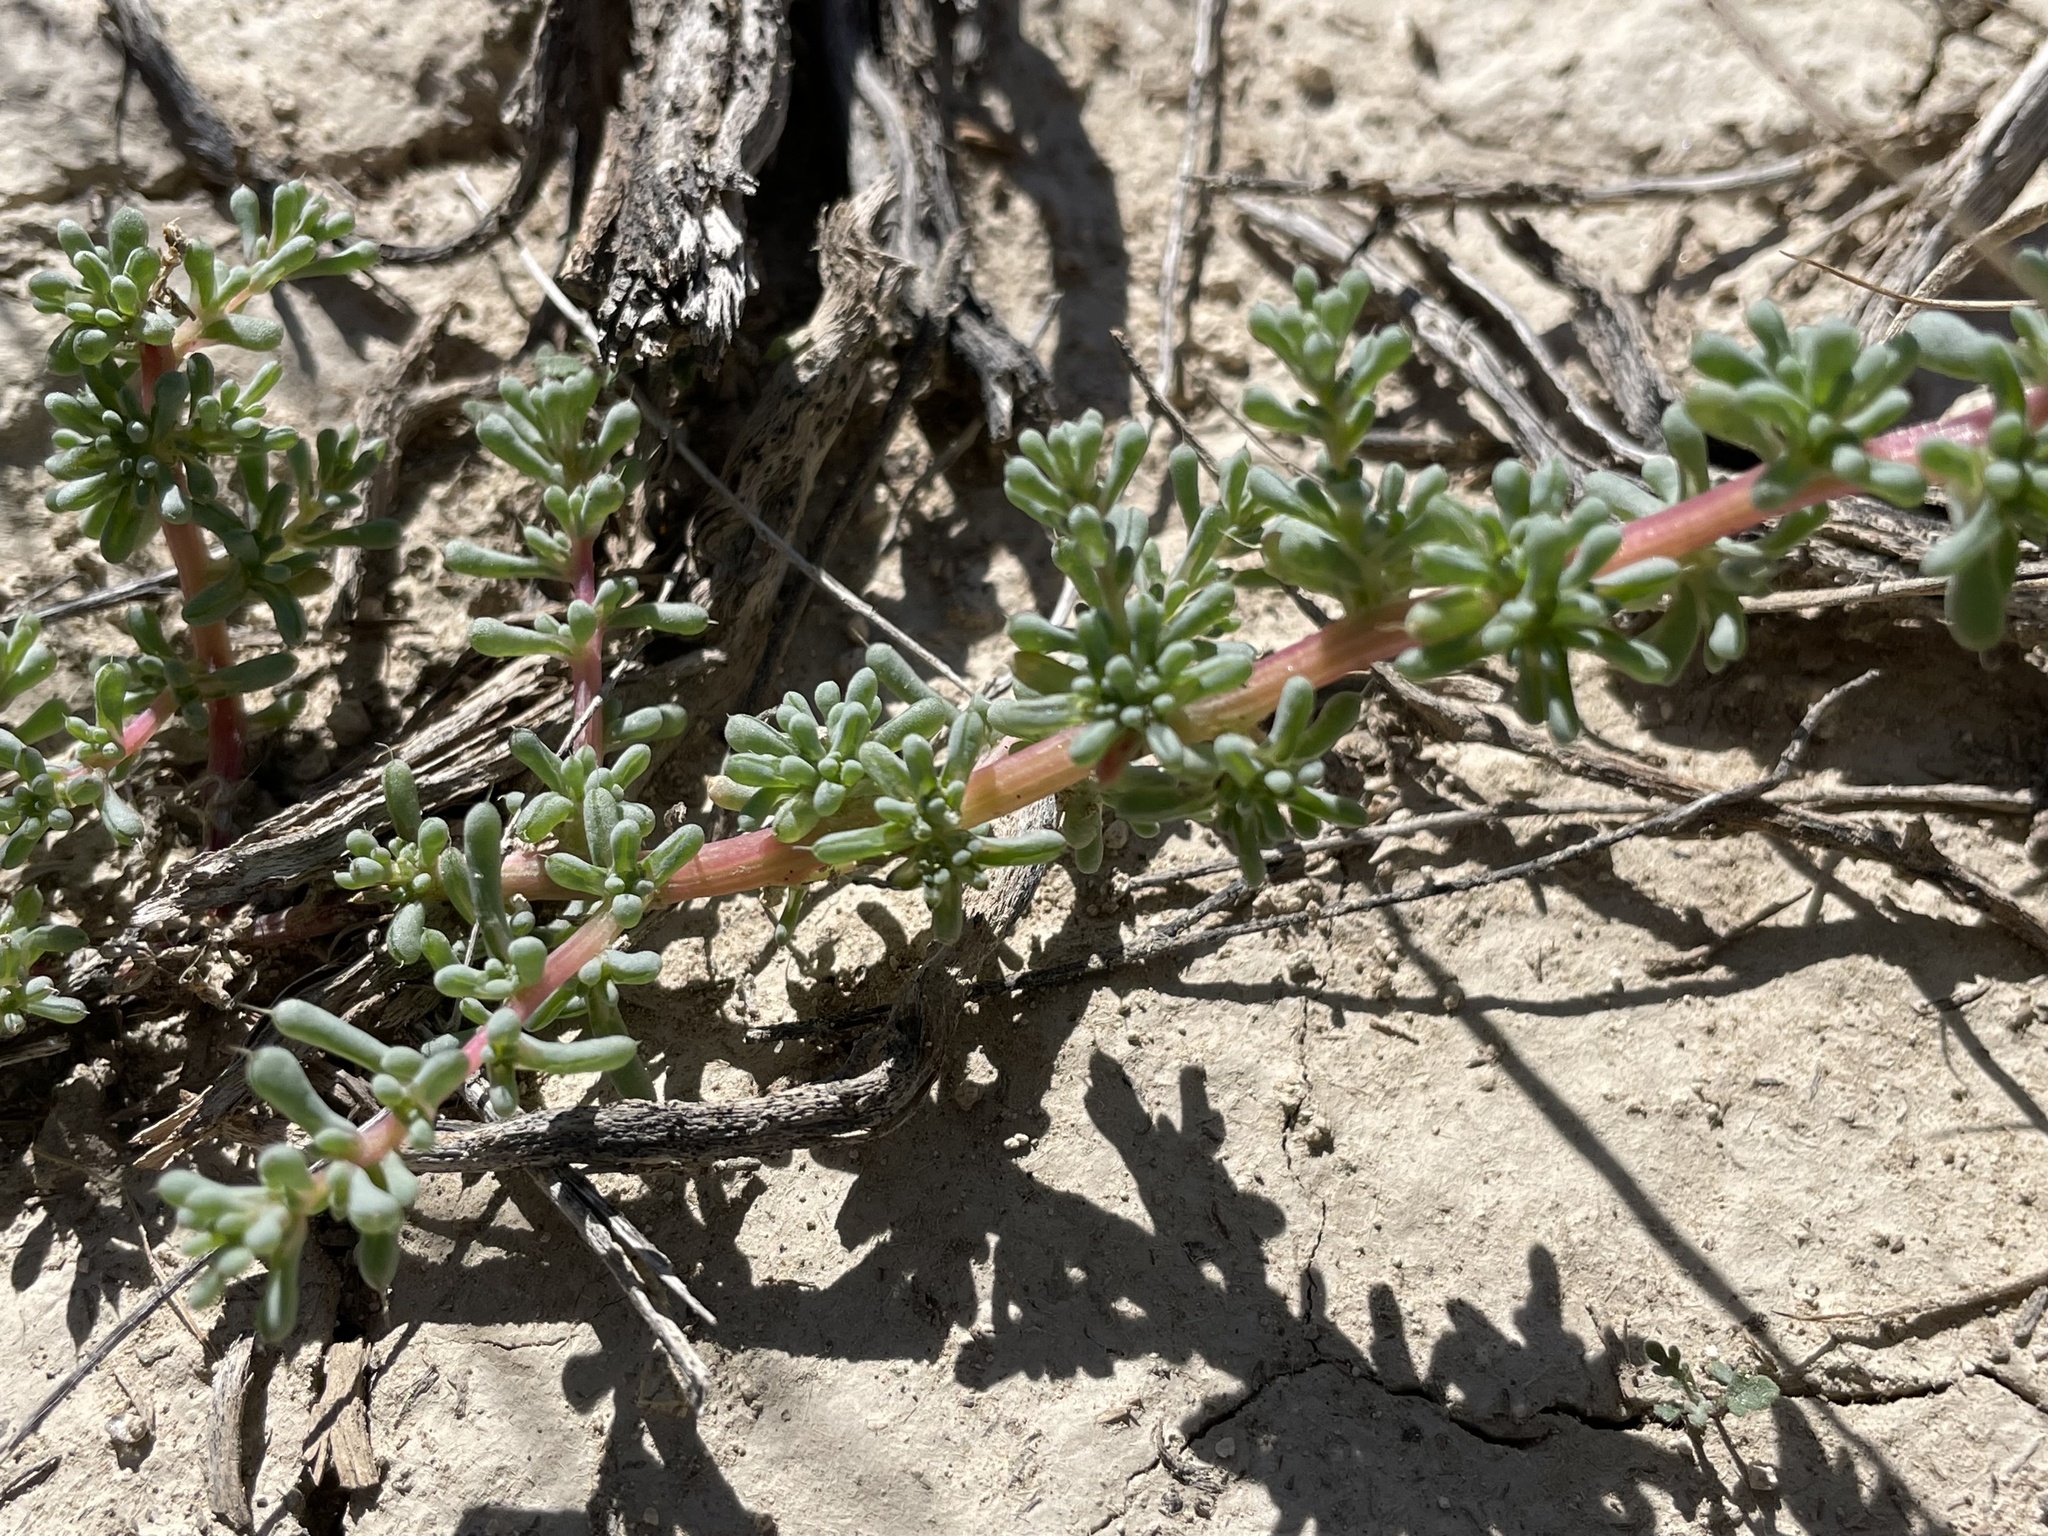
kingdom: Plantae
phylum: Tracheophyta
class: Magnoliopsida
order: Caryophyllales
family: Amaranthaceae
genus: Halogeton
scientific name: Halogeton glomeratus
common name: Saltlover
